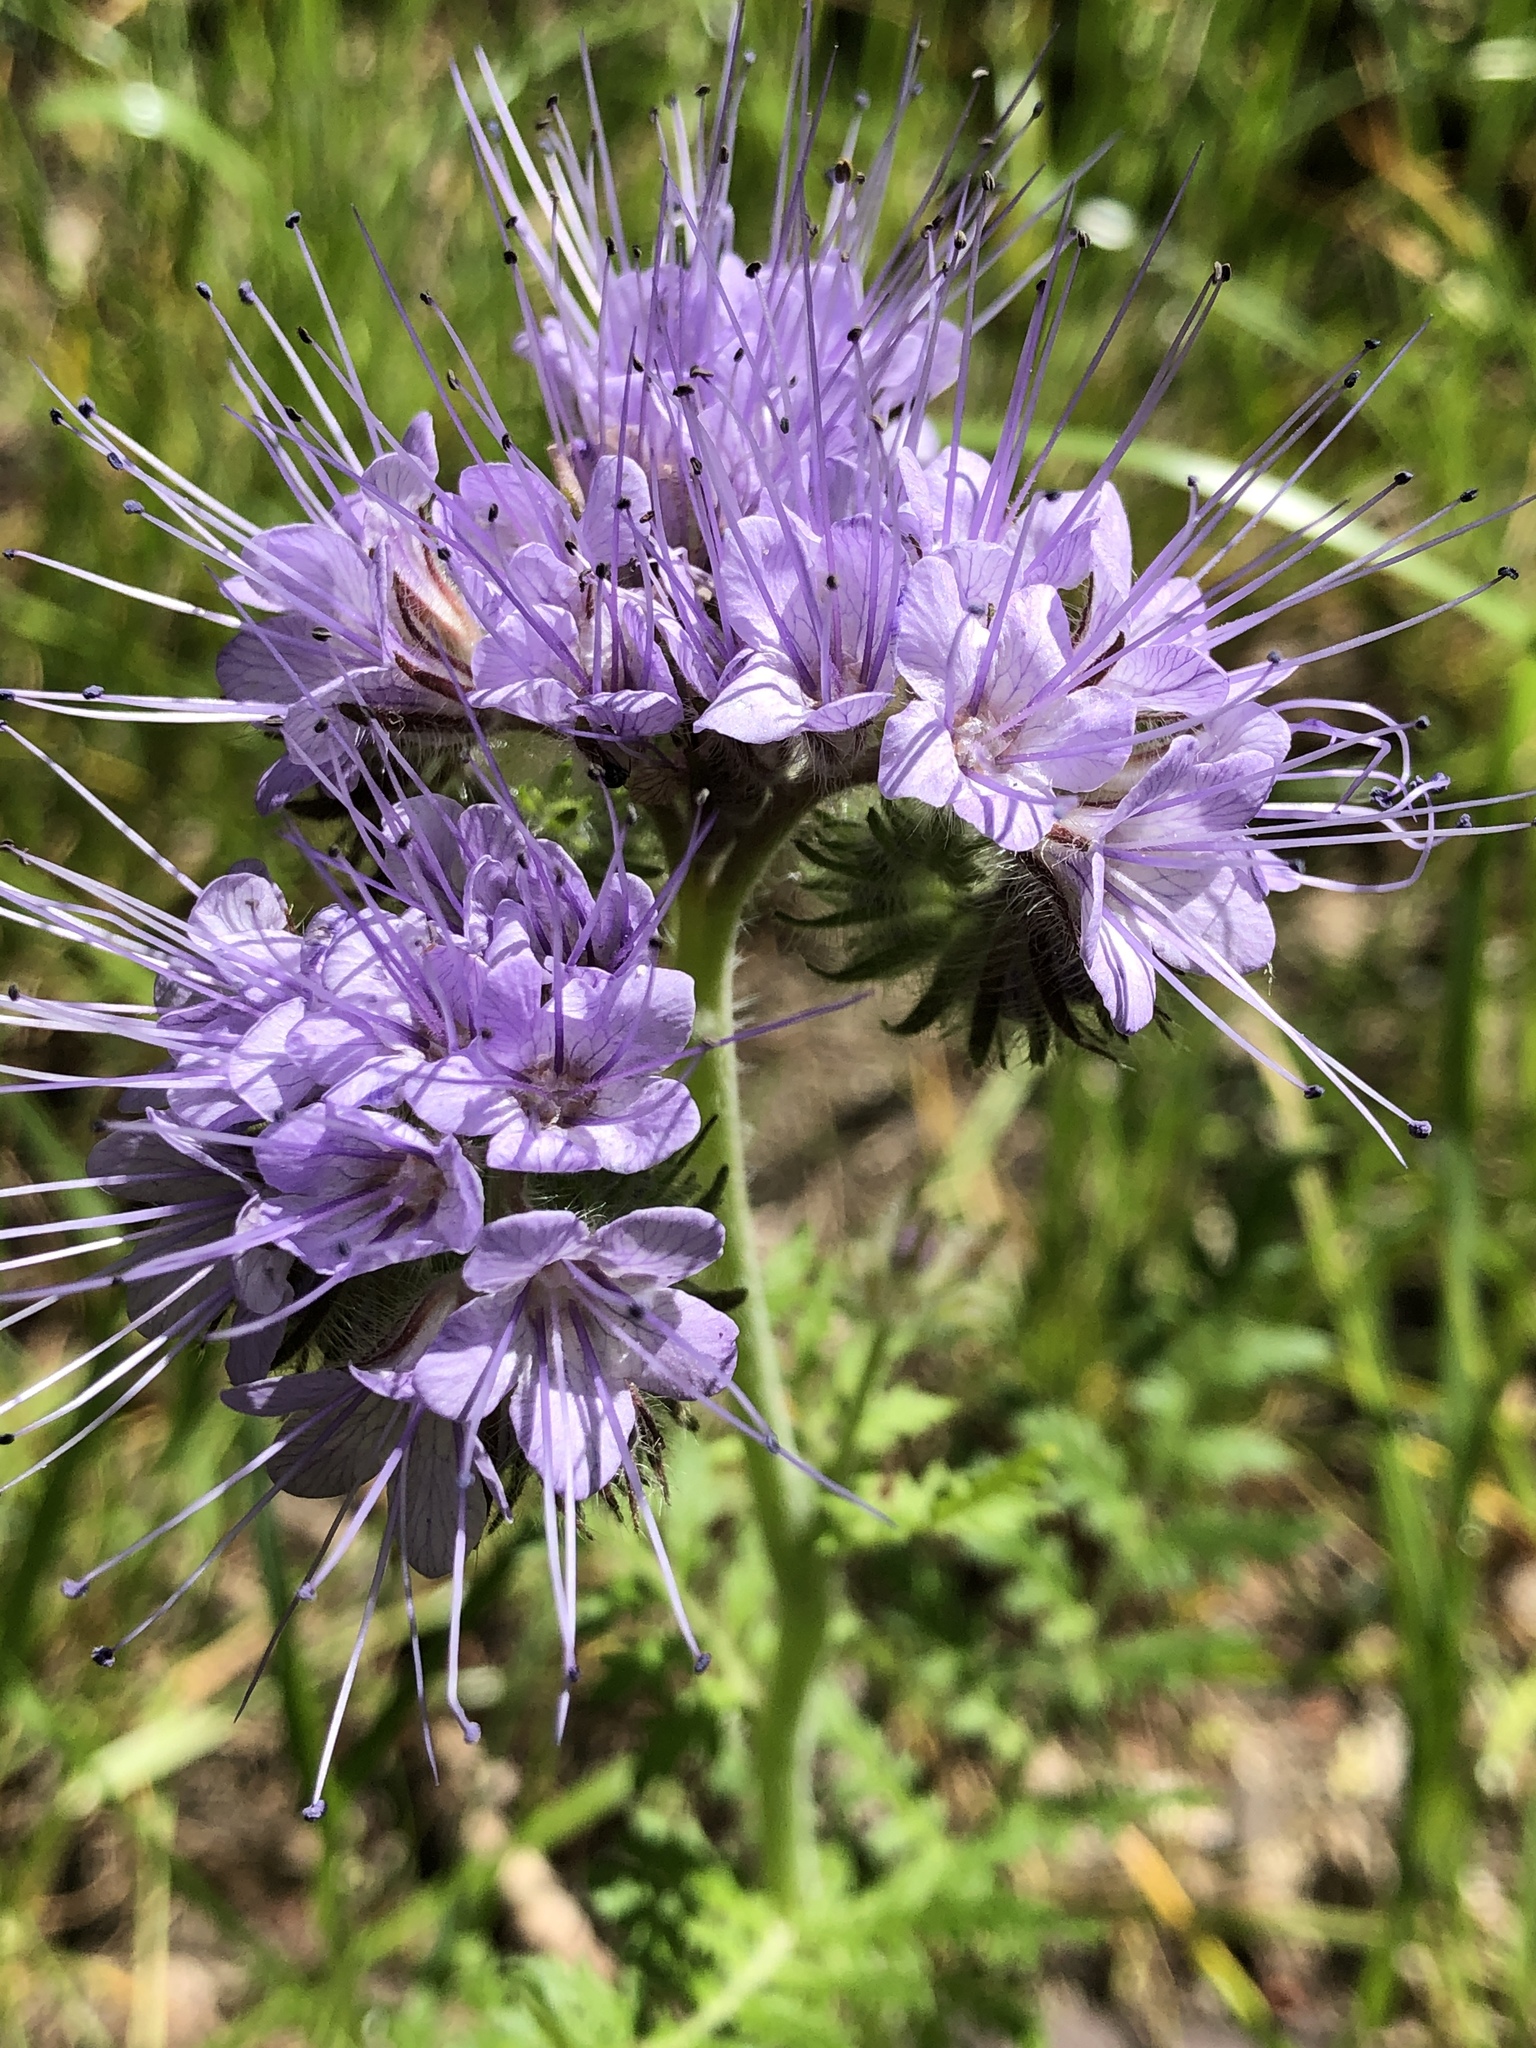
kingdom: Plantae
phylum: Tracheophyta
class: Magnoliopsida
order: Boraginales
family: Hydrophyllaceae
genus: Phacelia
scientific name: Phacelia tanacetifolia
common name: Phacelia
